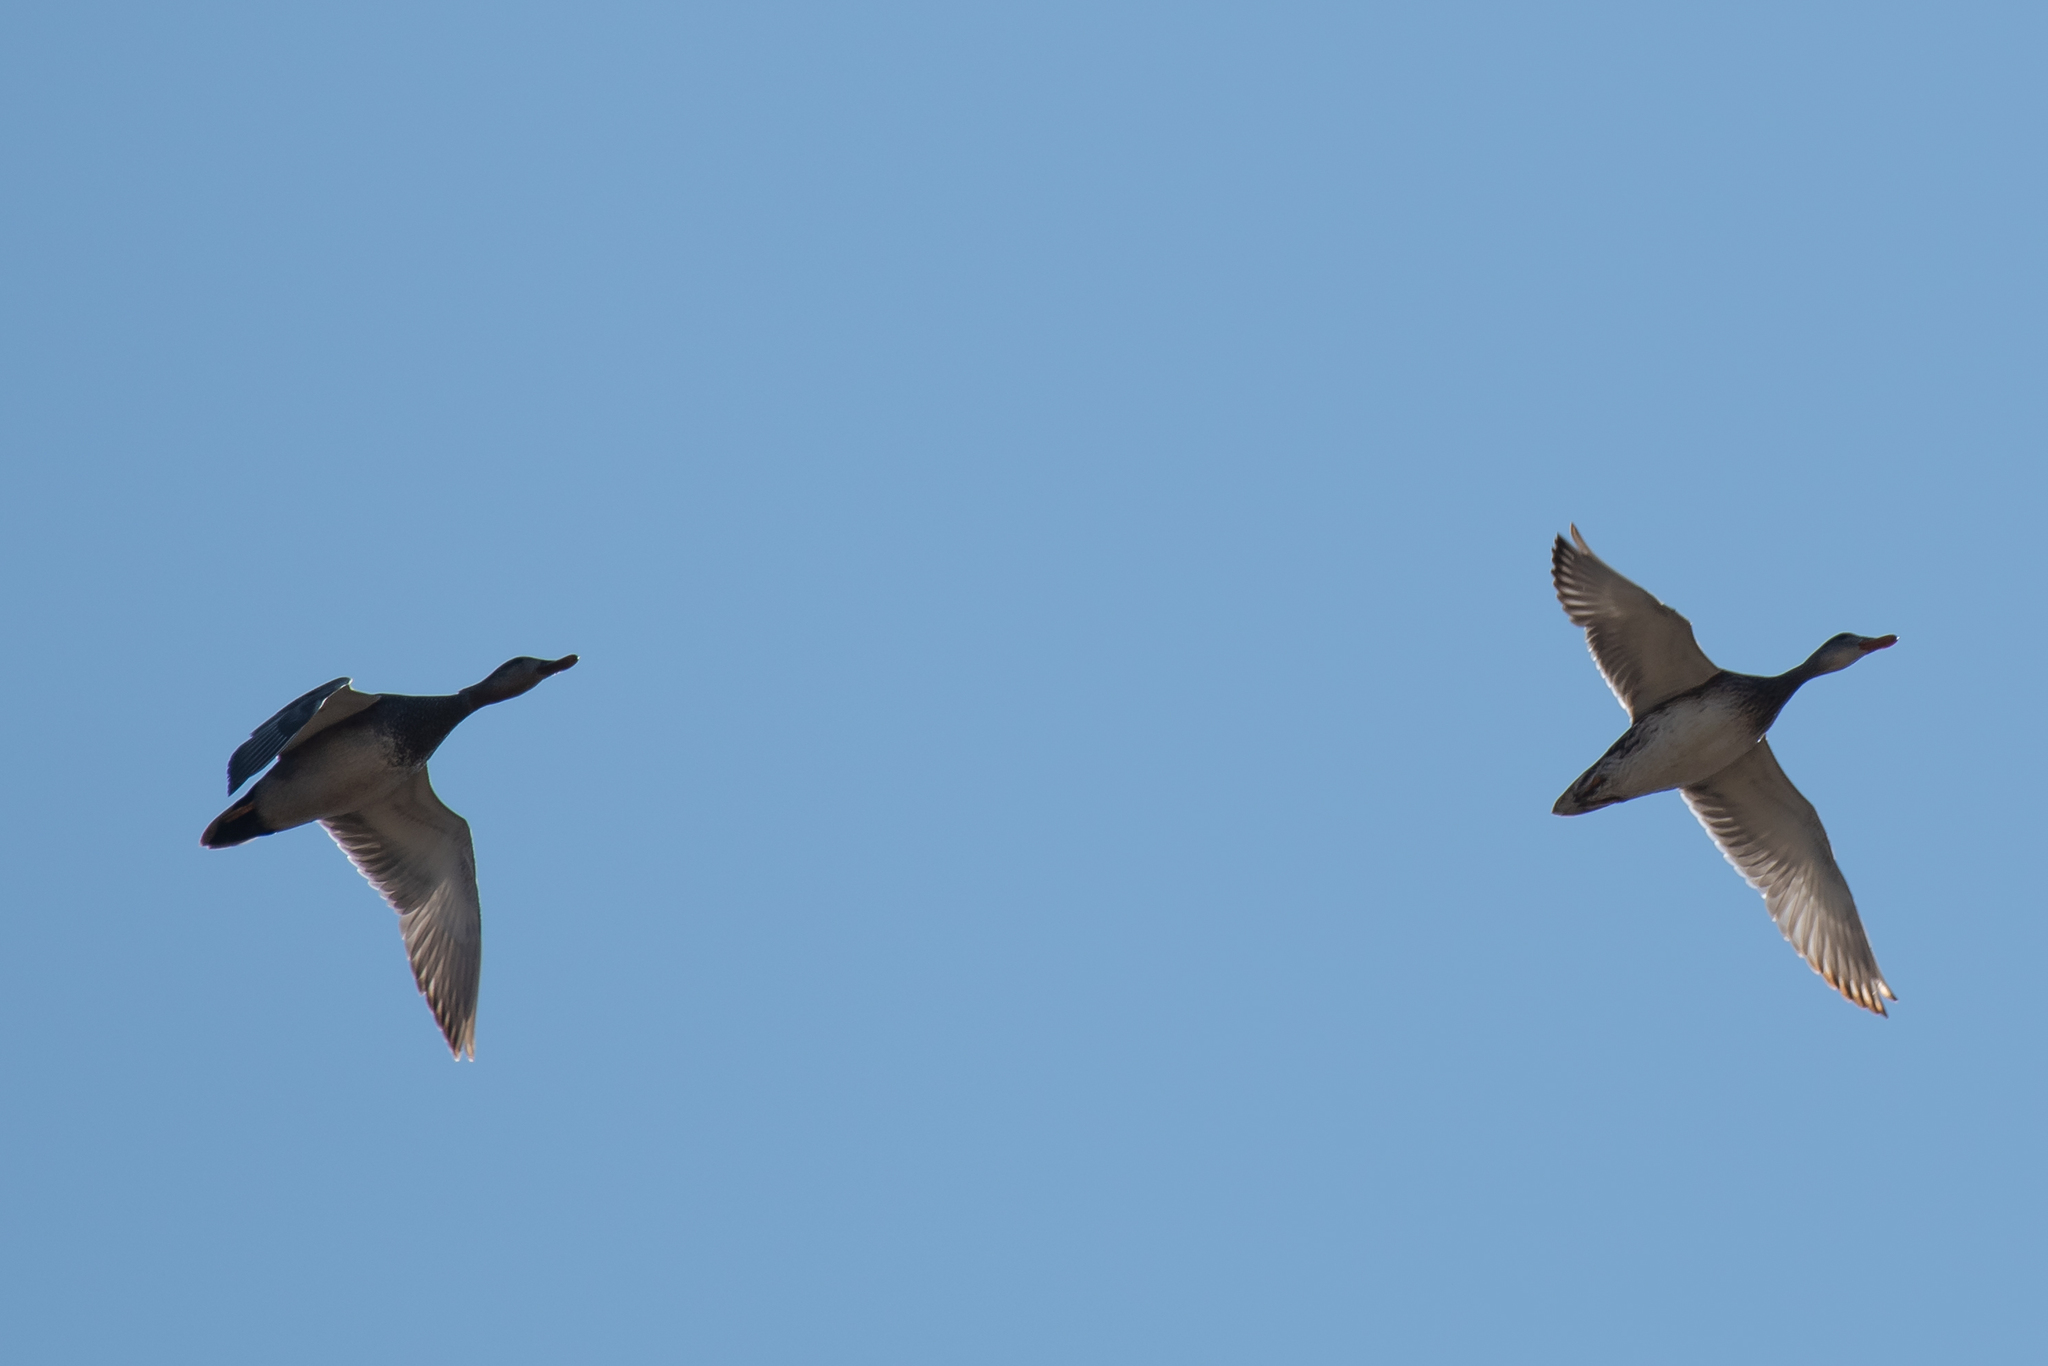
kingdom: Animalia
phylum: Chordata
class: Aves
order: Anseriformes
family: Anatidae
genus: Mareca
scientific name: Mareca strepera
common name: Gadwall
